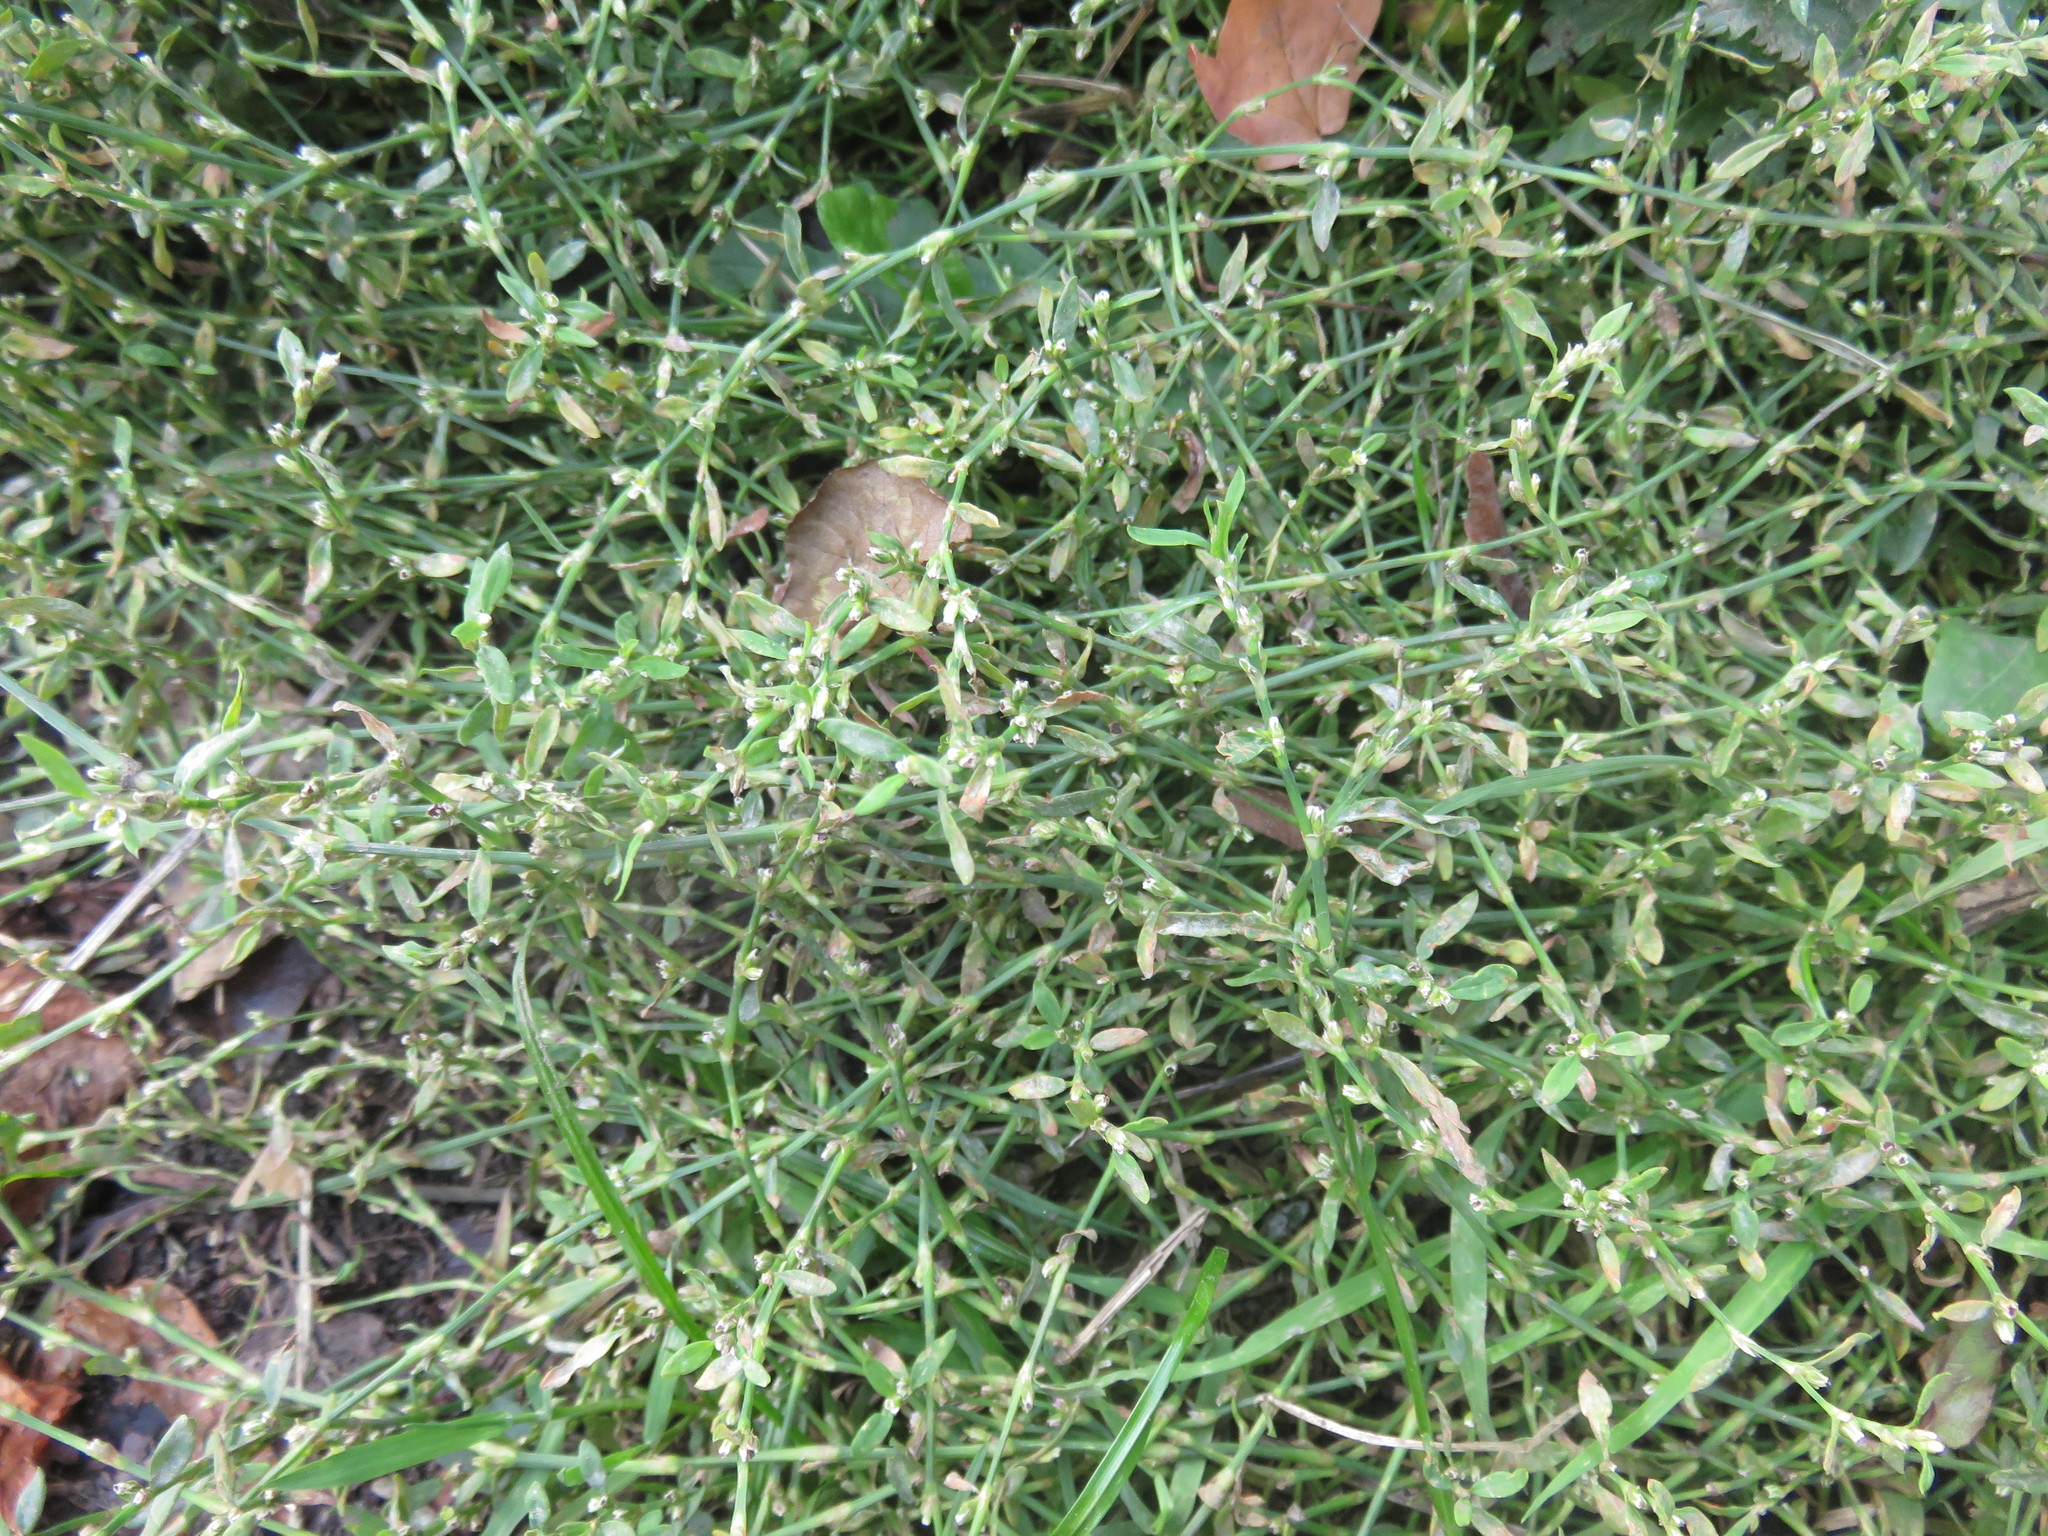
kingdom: Plantae
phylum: Tracheophyta
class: Magnoliopsida
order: Caryophyllales
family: Polygonaceae
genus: Polygonum
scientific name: Polygonum aviculare
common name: Prostrate knotweed
